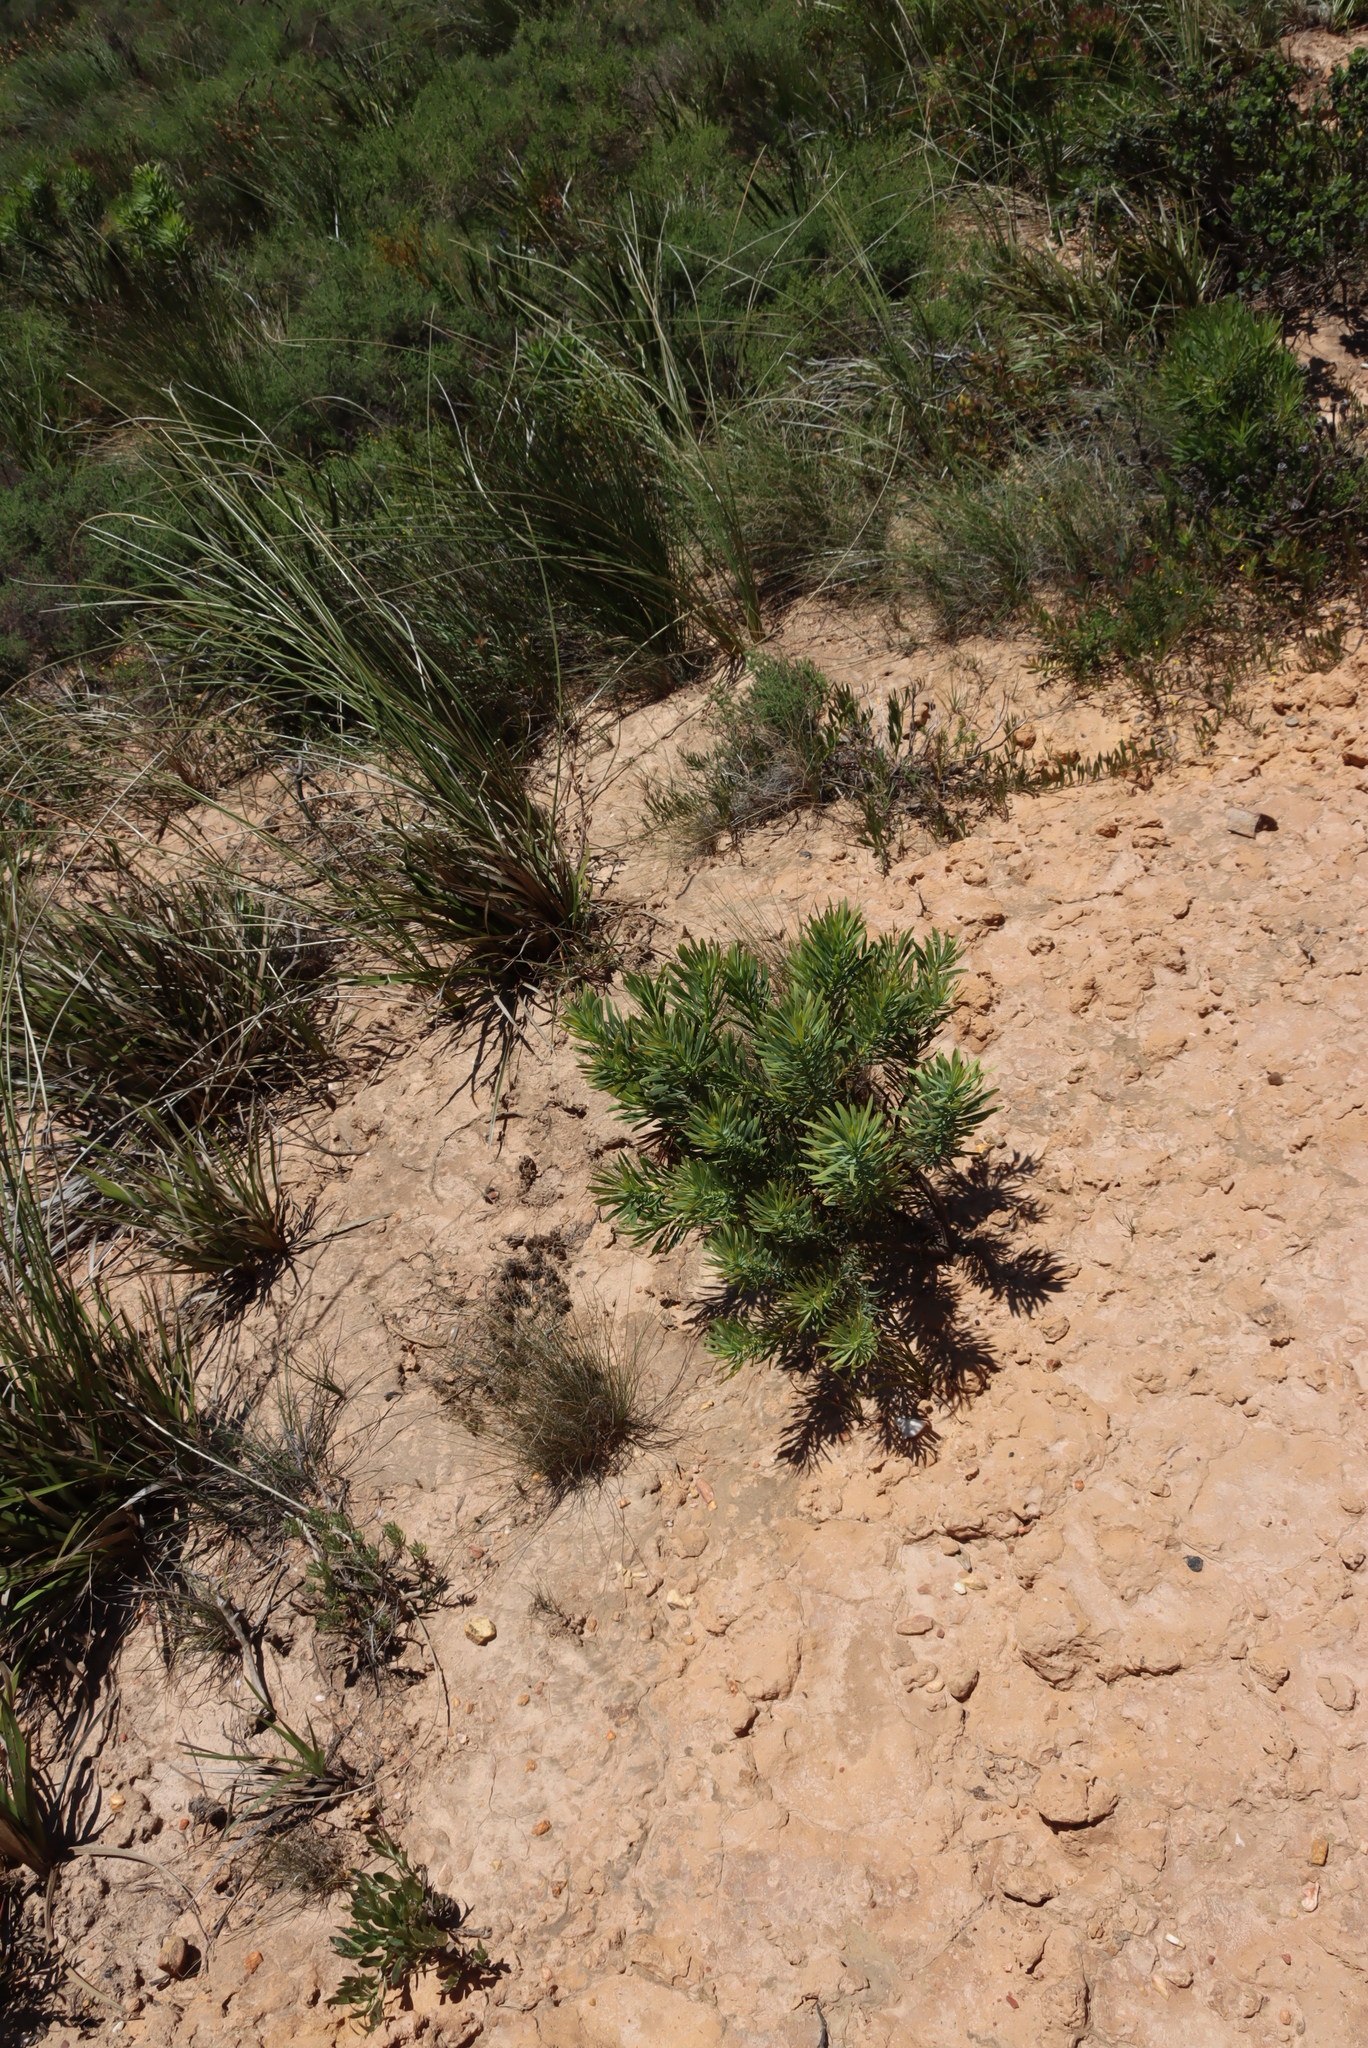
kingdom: Plantae
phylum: Tracheophyta
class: Magnoliopsida
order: Proteales
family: Proteaceae
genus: Protea
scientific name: Protea repens
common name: Sugarbush
